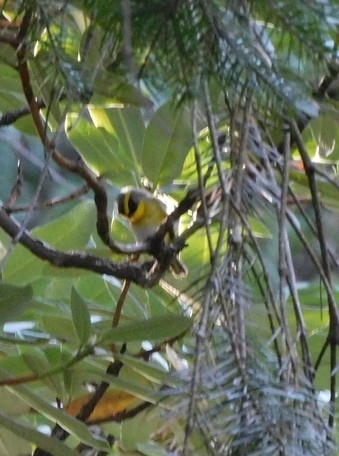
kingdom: Animalia
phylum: Chordata
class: Aves
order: Passeriformes
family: Cettiidae
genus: Abroscopus
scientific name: Abroscopus schisticeps
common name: Black-faced warbler
